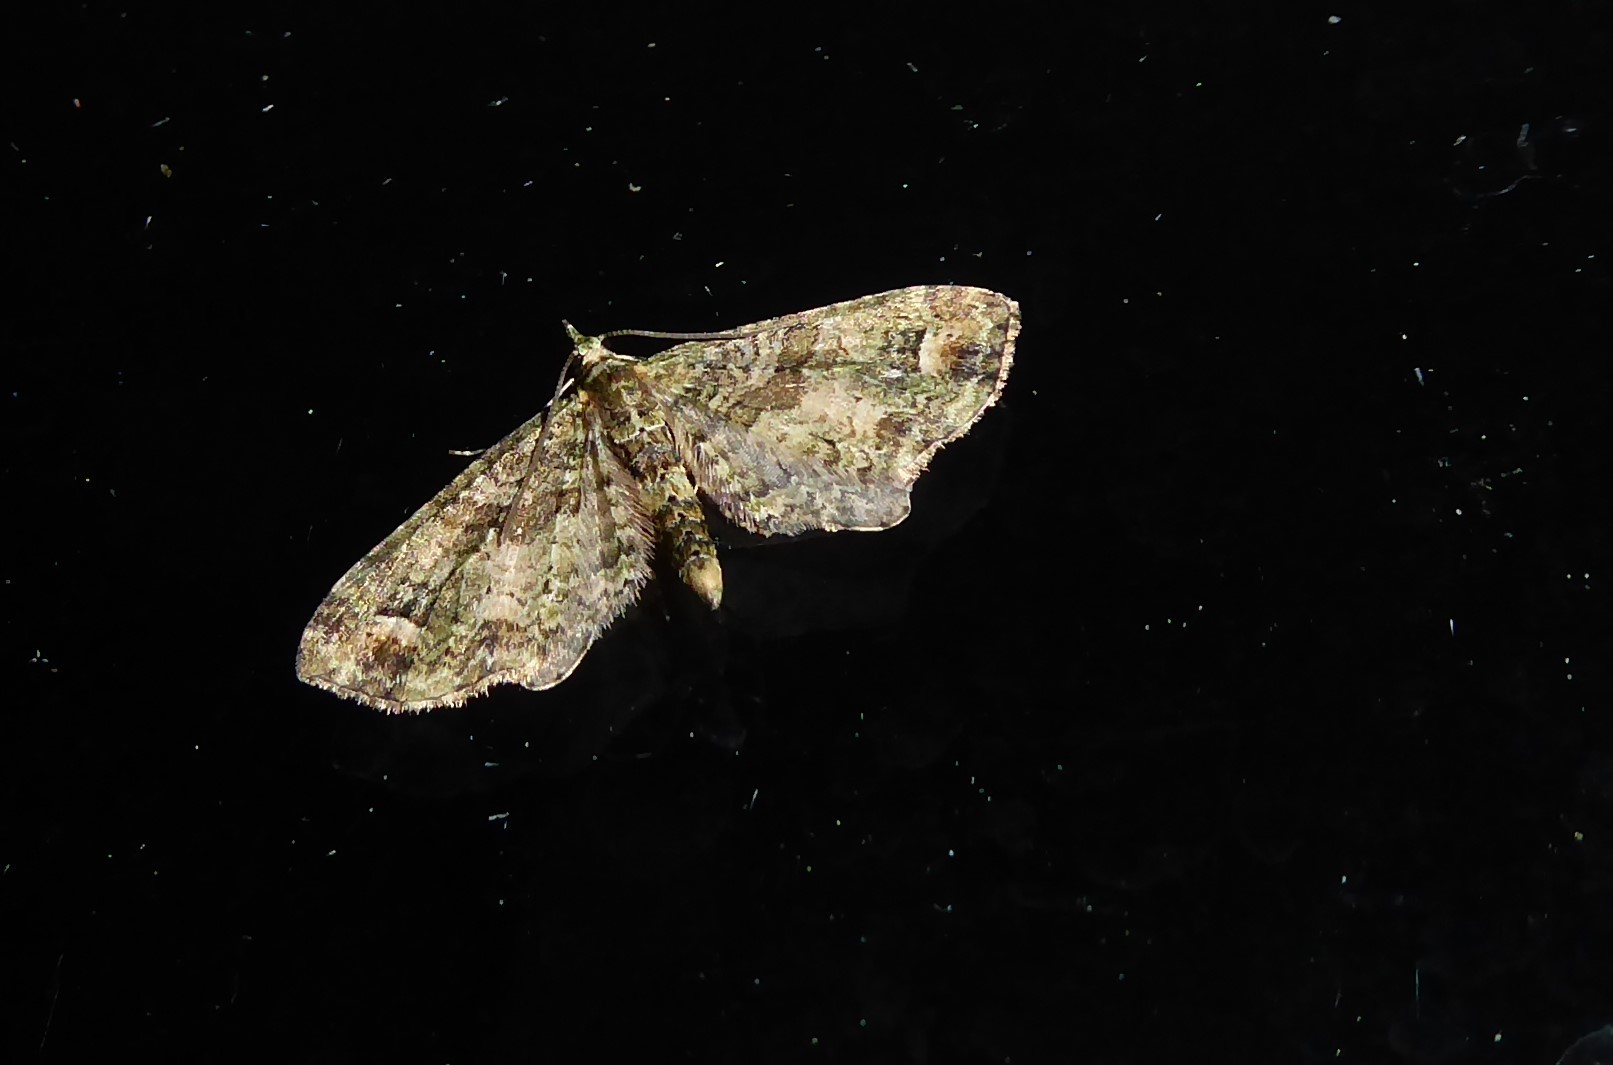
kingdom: Animalia
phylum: Arthropoda
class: Insecta
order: Lepidoptera
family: Geometridae
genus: Idaea
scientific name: Idaea mutanda
